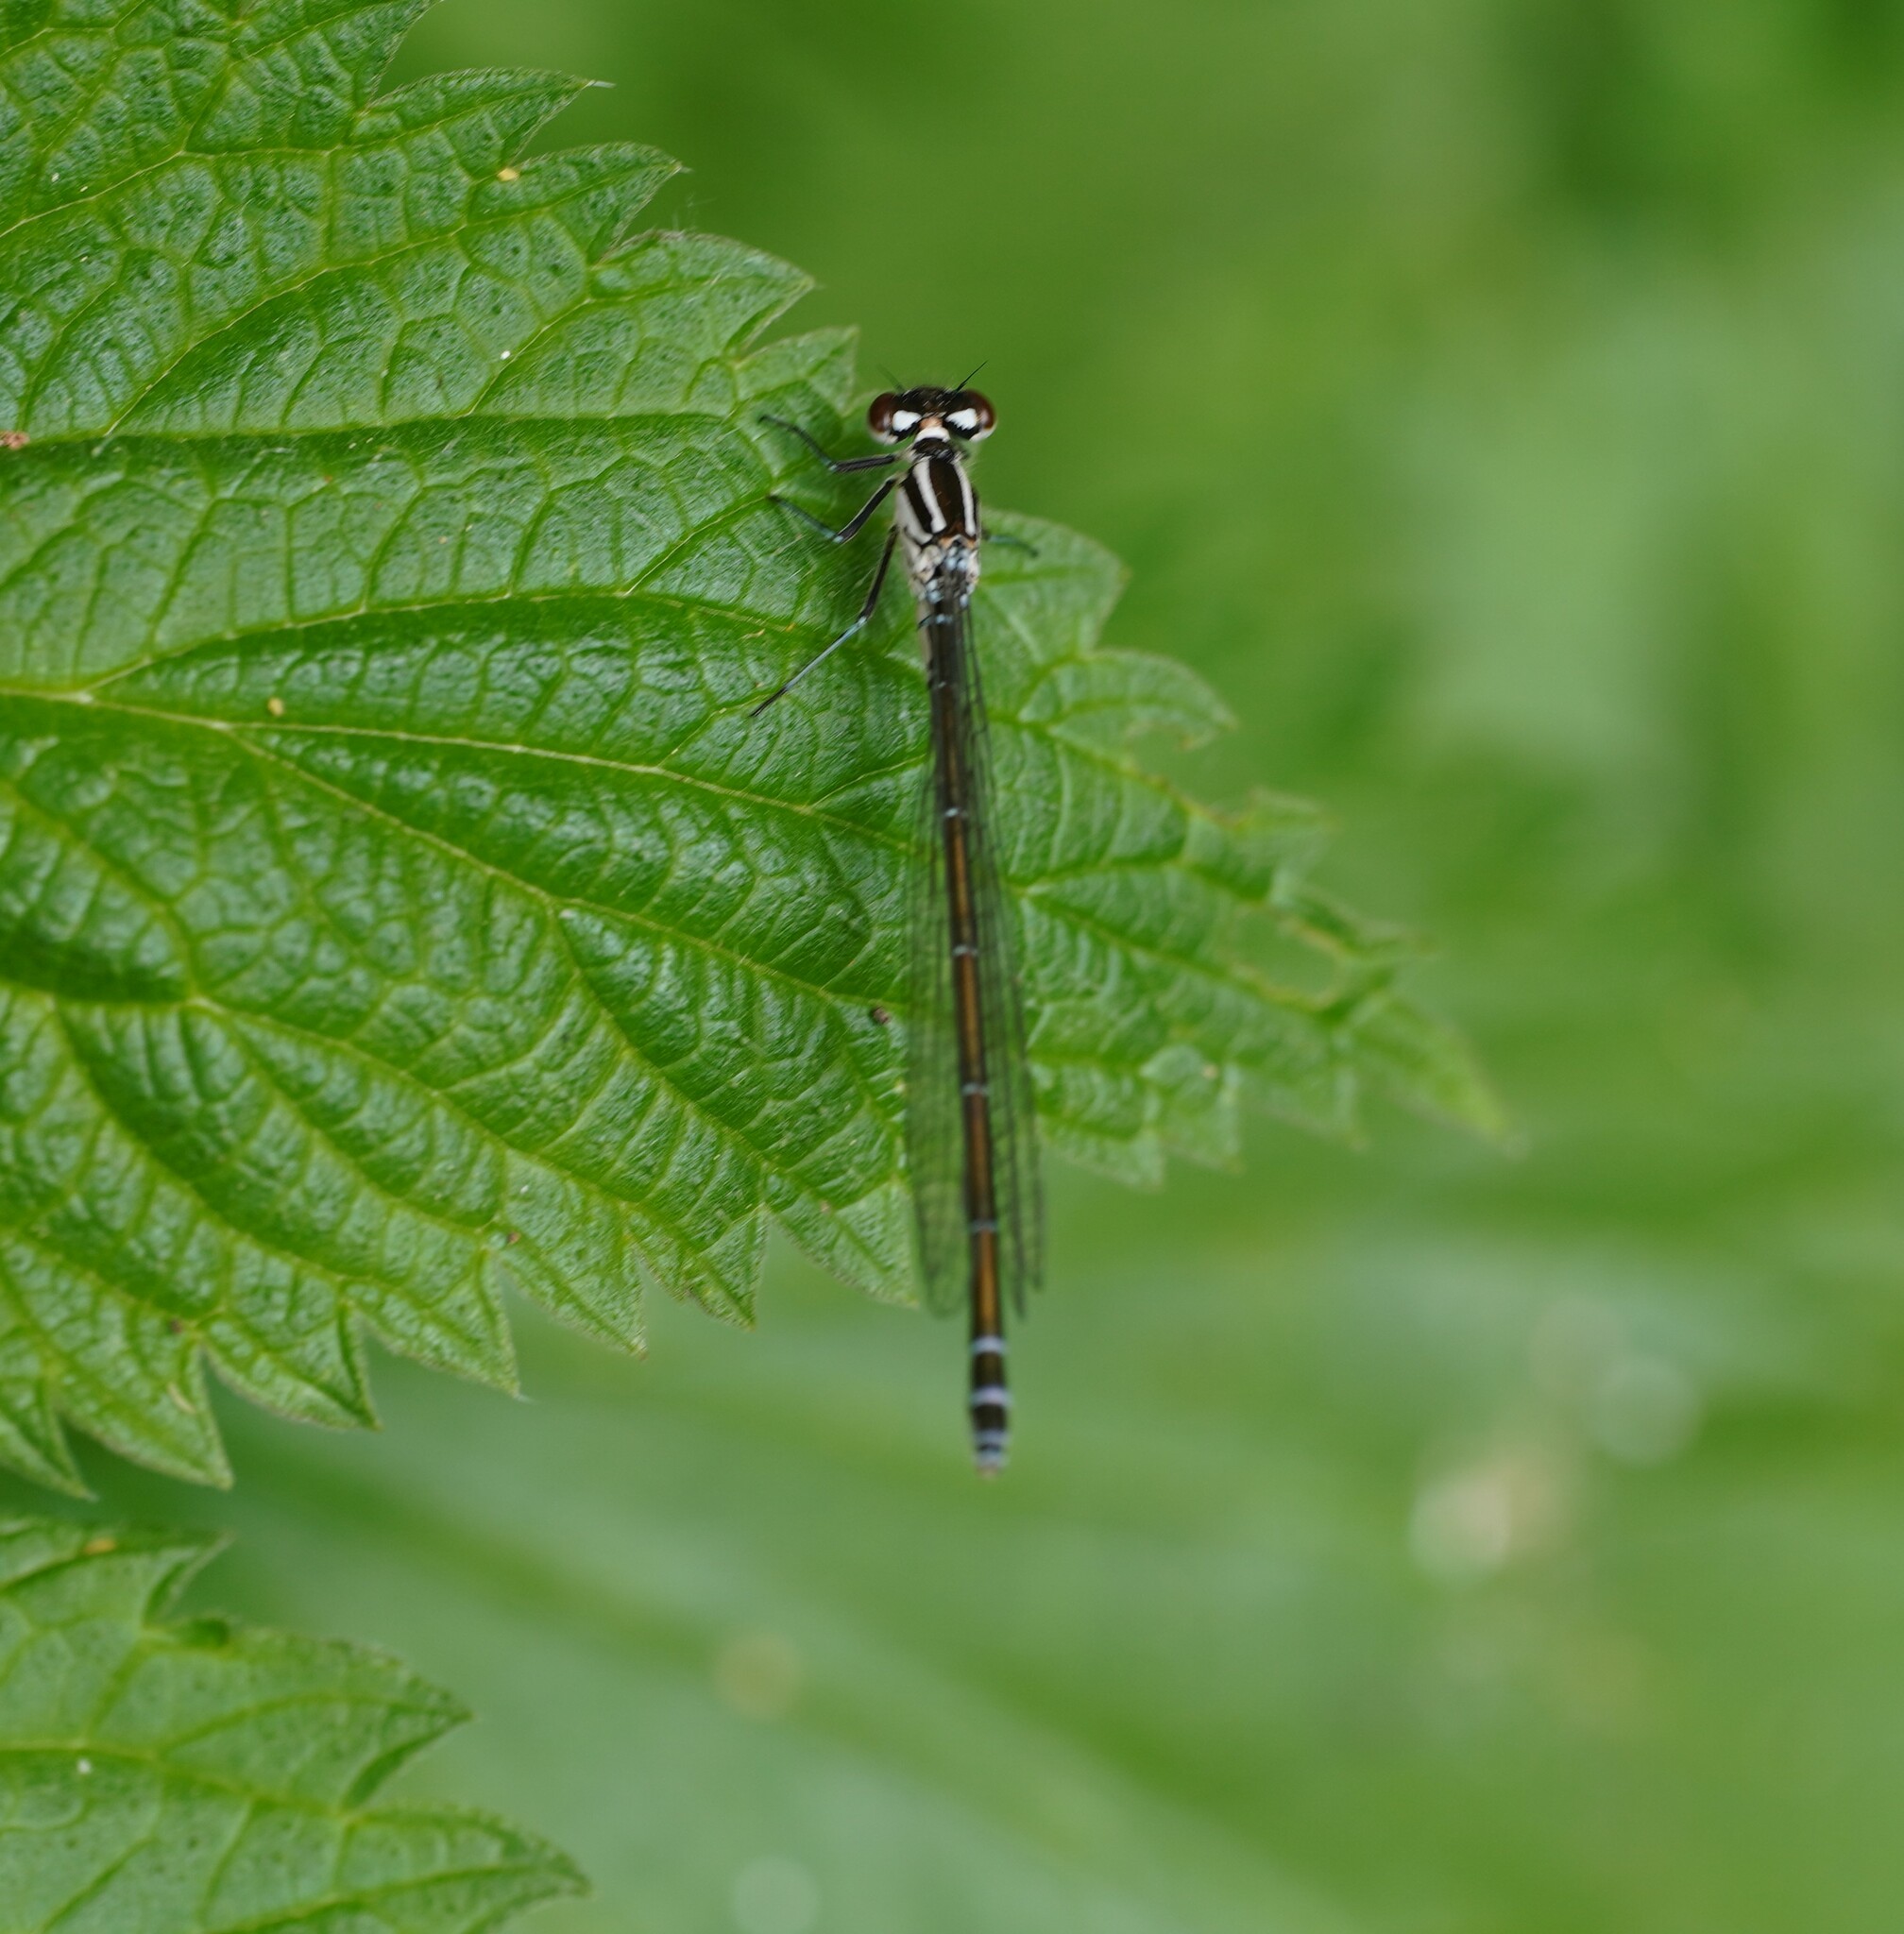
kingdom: Animalia
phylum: Arthropoda
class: Insecta
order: Odonata
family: Coenagrionidae
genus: Coenagrion
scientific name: Coenagrion puella
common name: Azure damselfly
